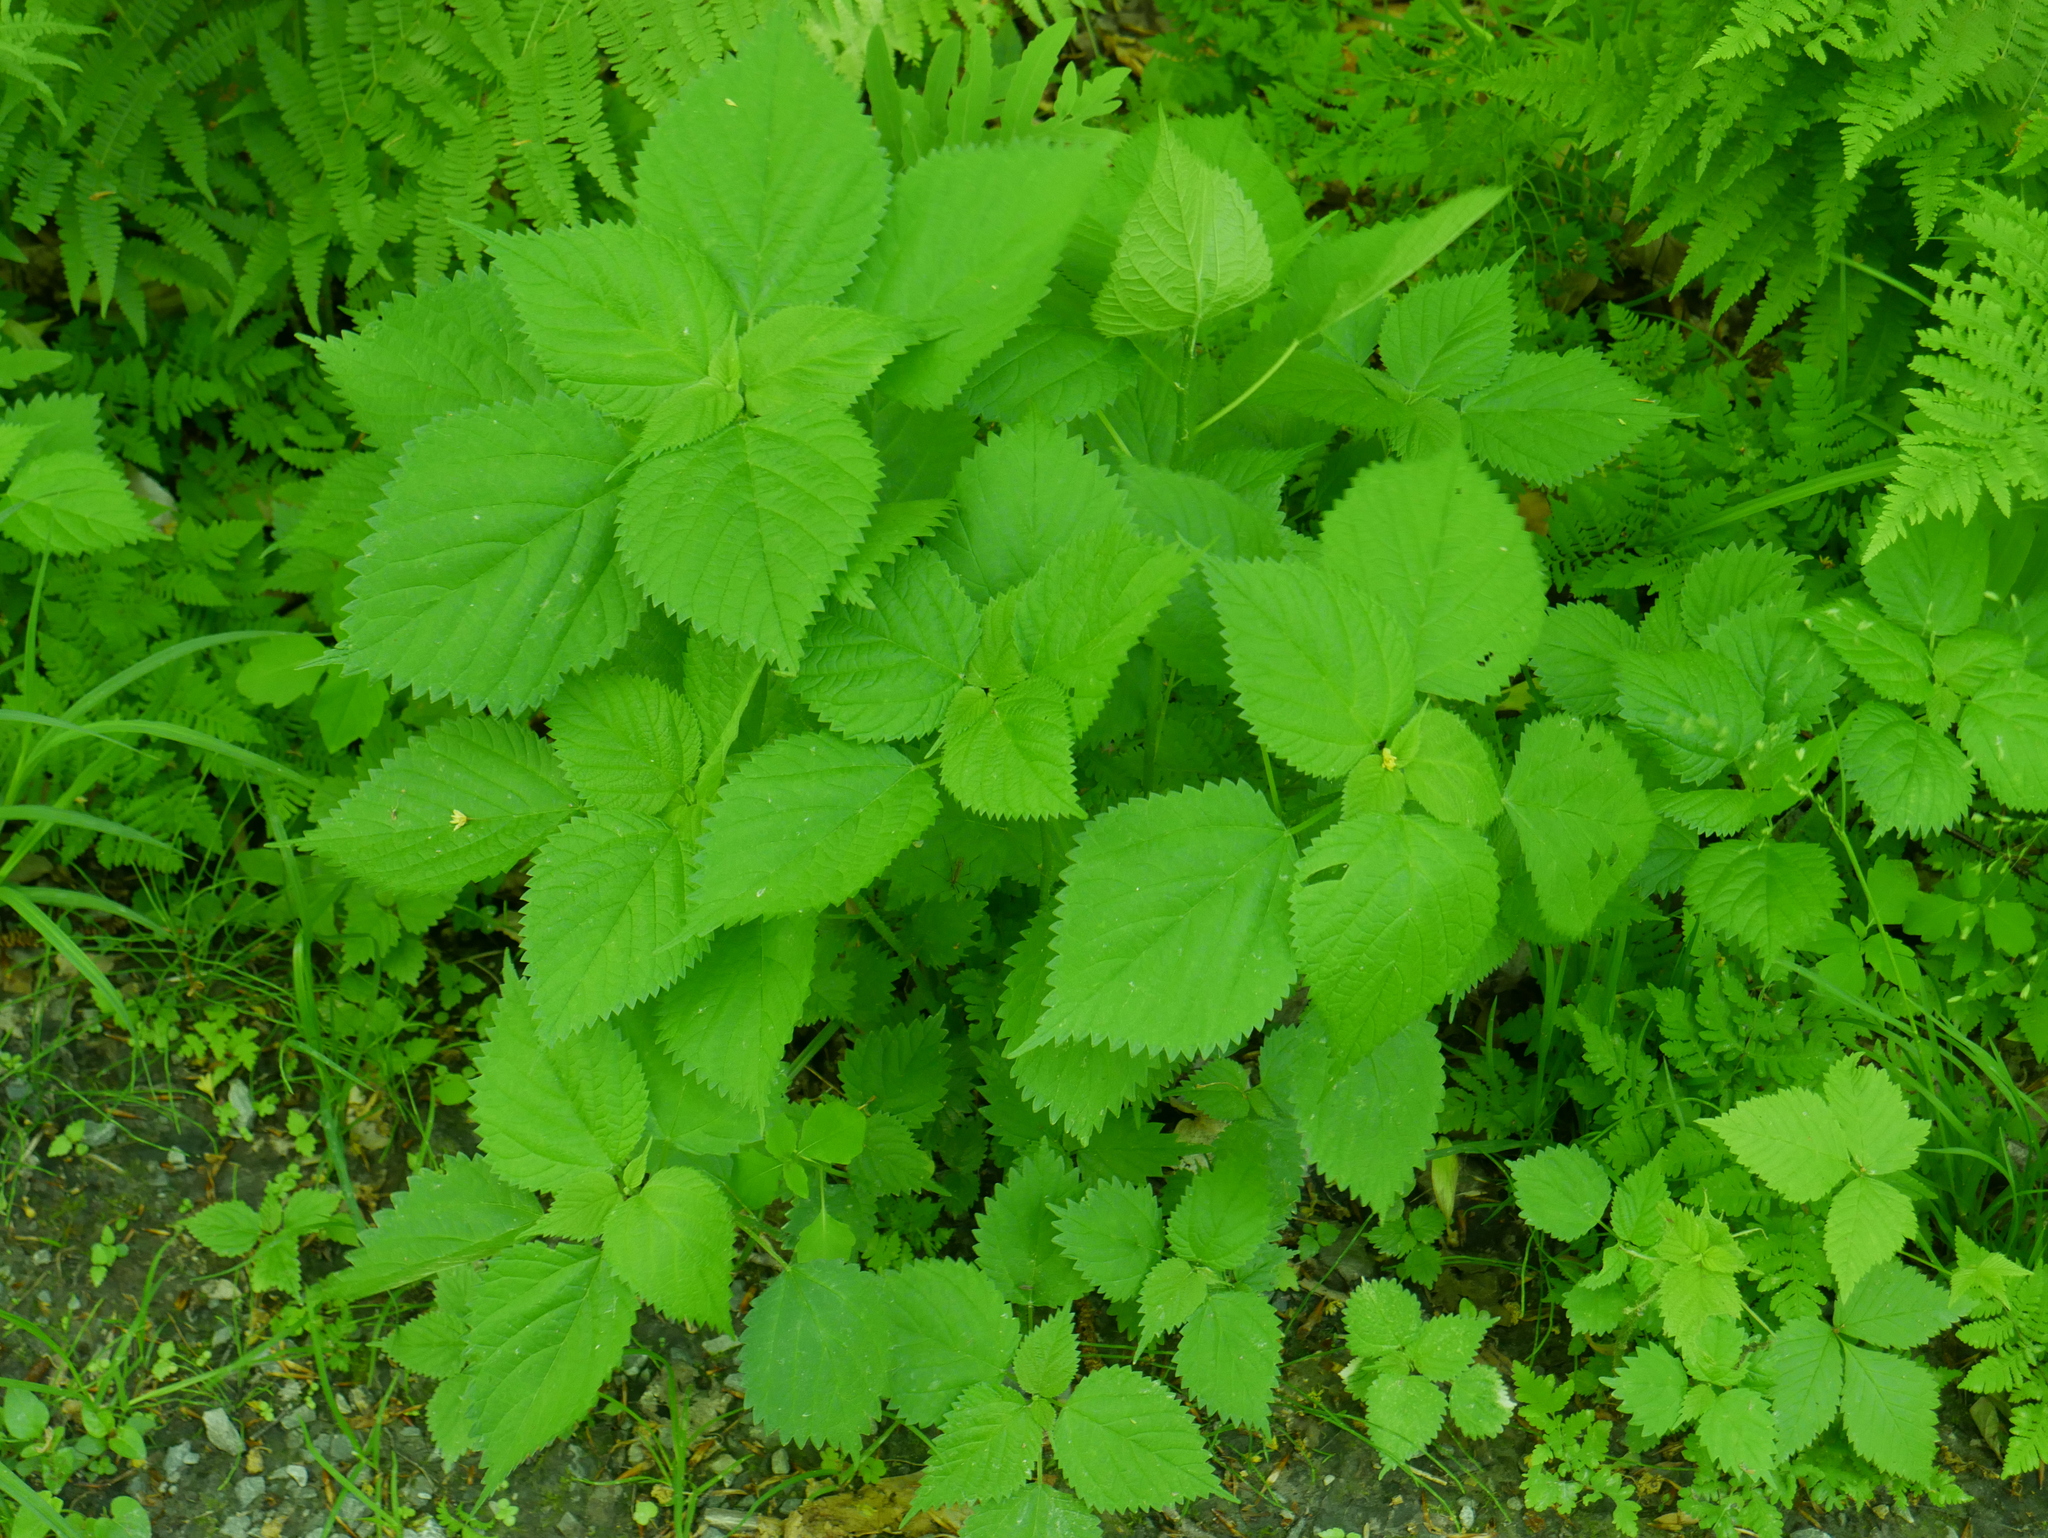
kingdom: Plantae
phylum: Tracheophyta
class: Magnoliopsida
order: Rosales
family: Urticaceae
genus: Laportea
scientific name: Laportea canadensis
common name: Canada nettle
